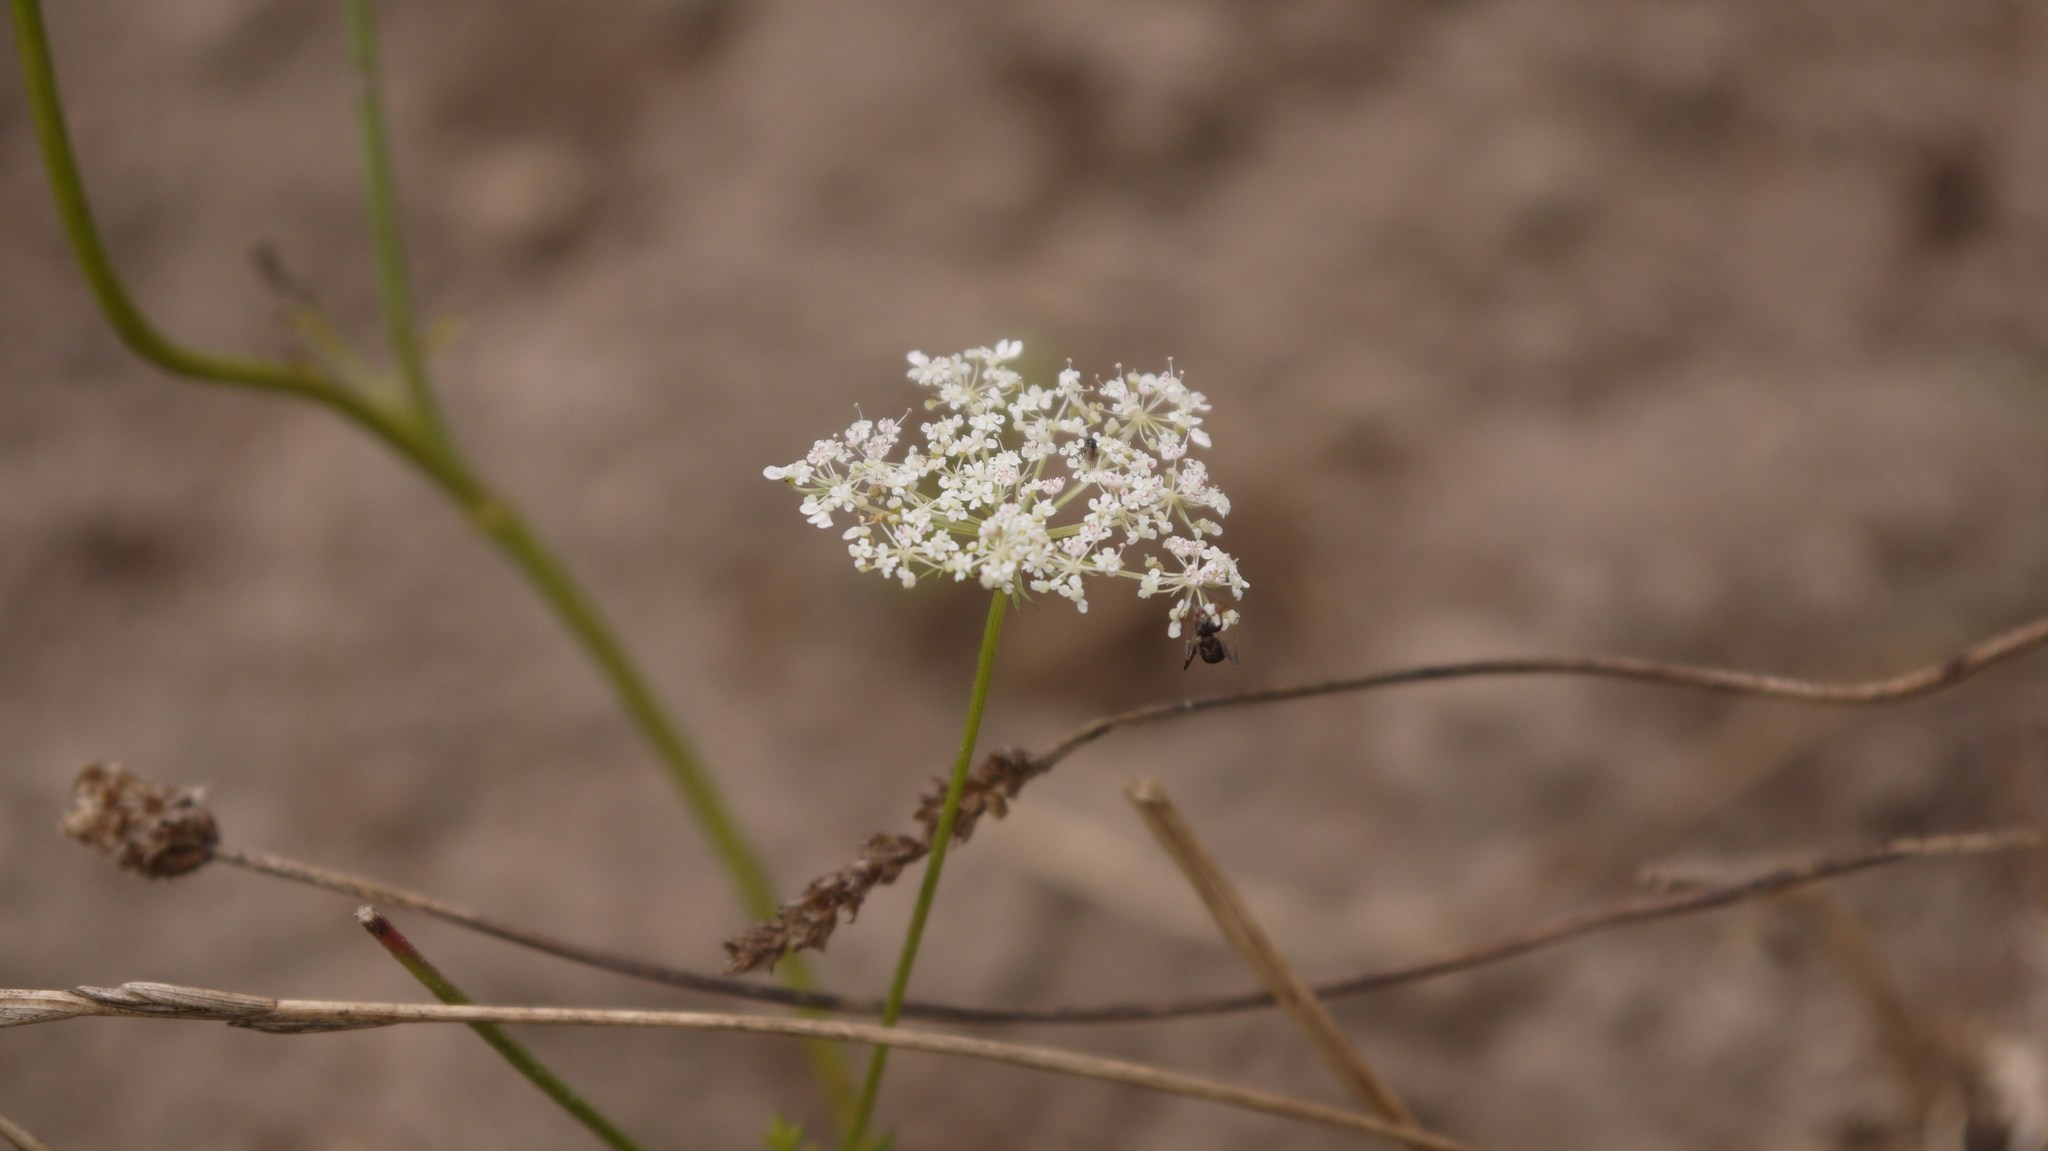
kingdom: Plantae
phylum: Tracheophyta
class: Magnoliopsida
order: Apiales
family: Apiaceae
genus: Daucus
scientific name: Daucus carota
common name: Wild carrot
